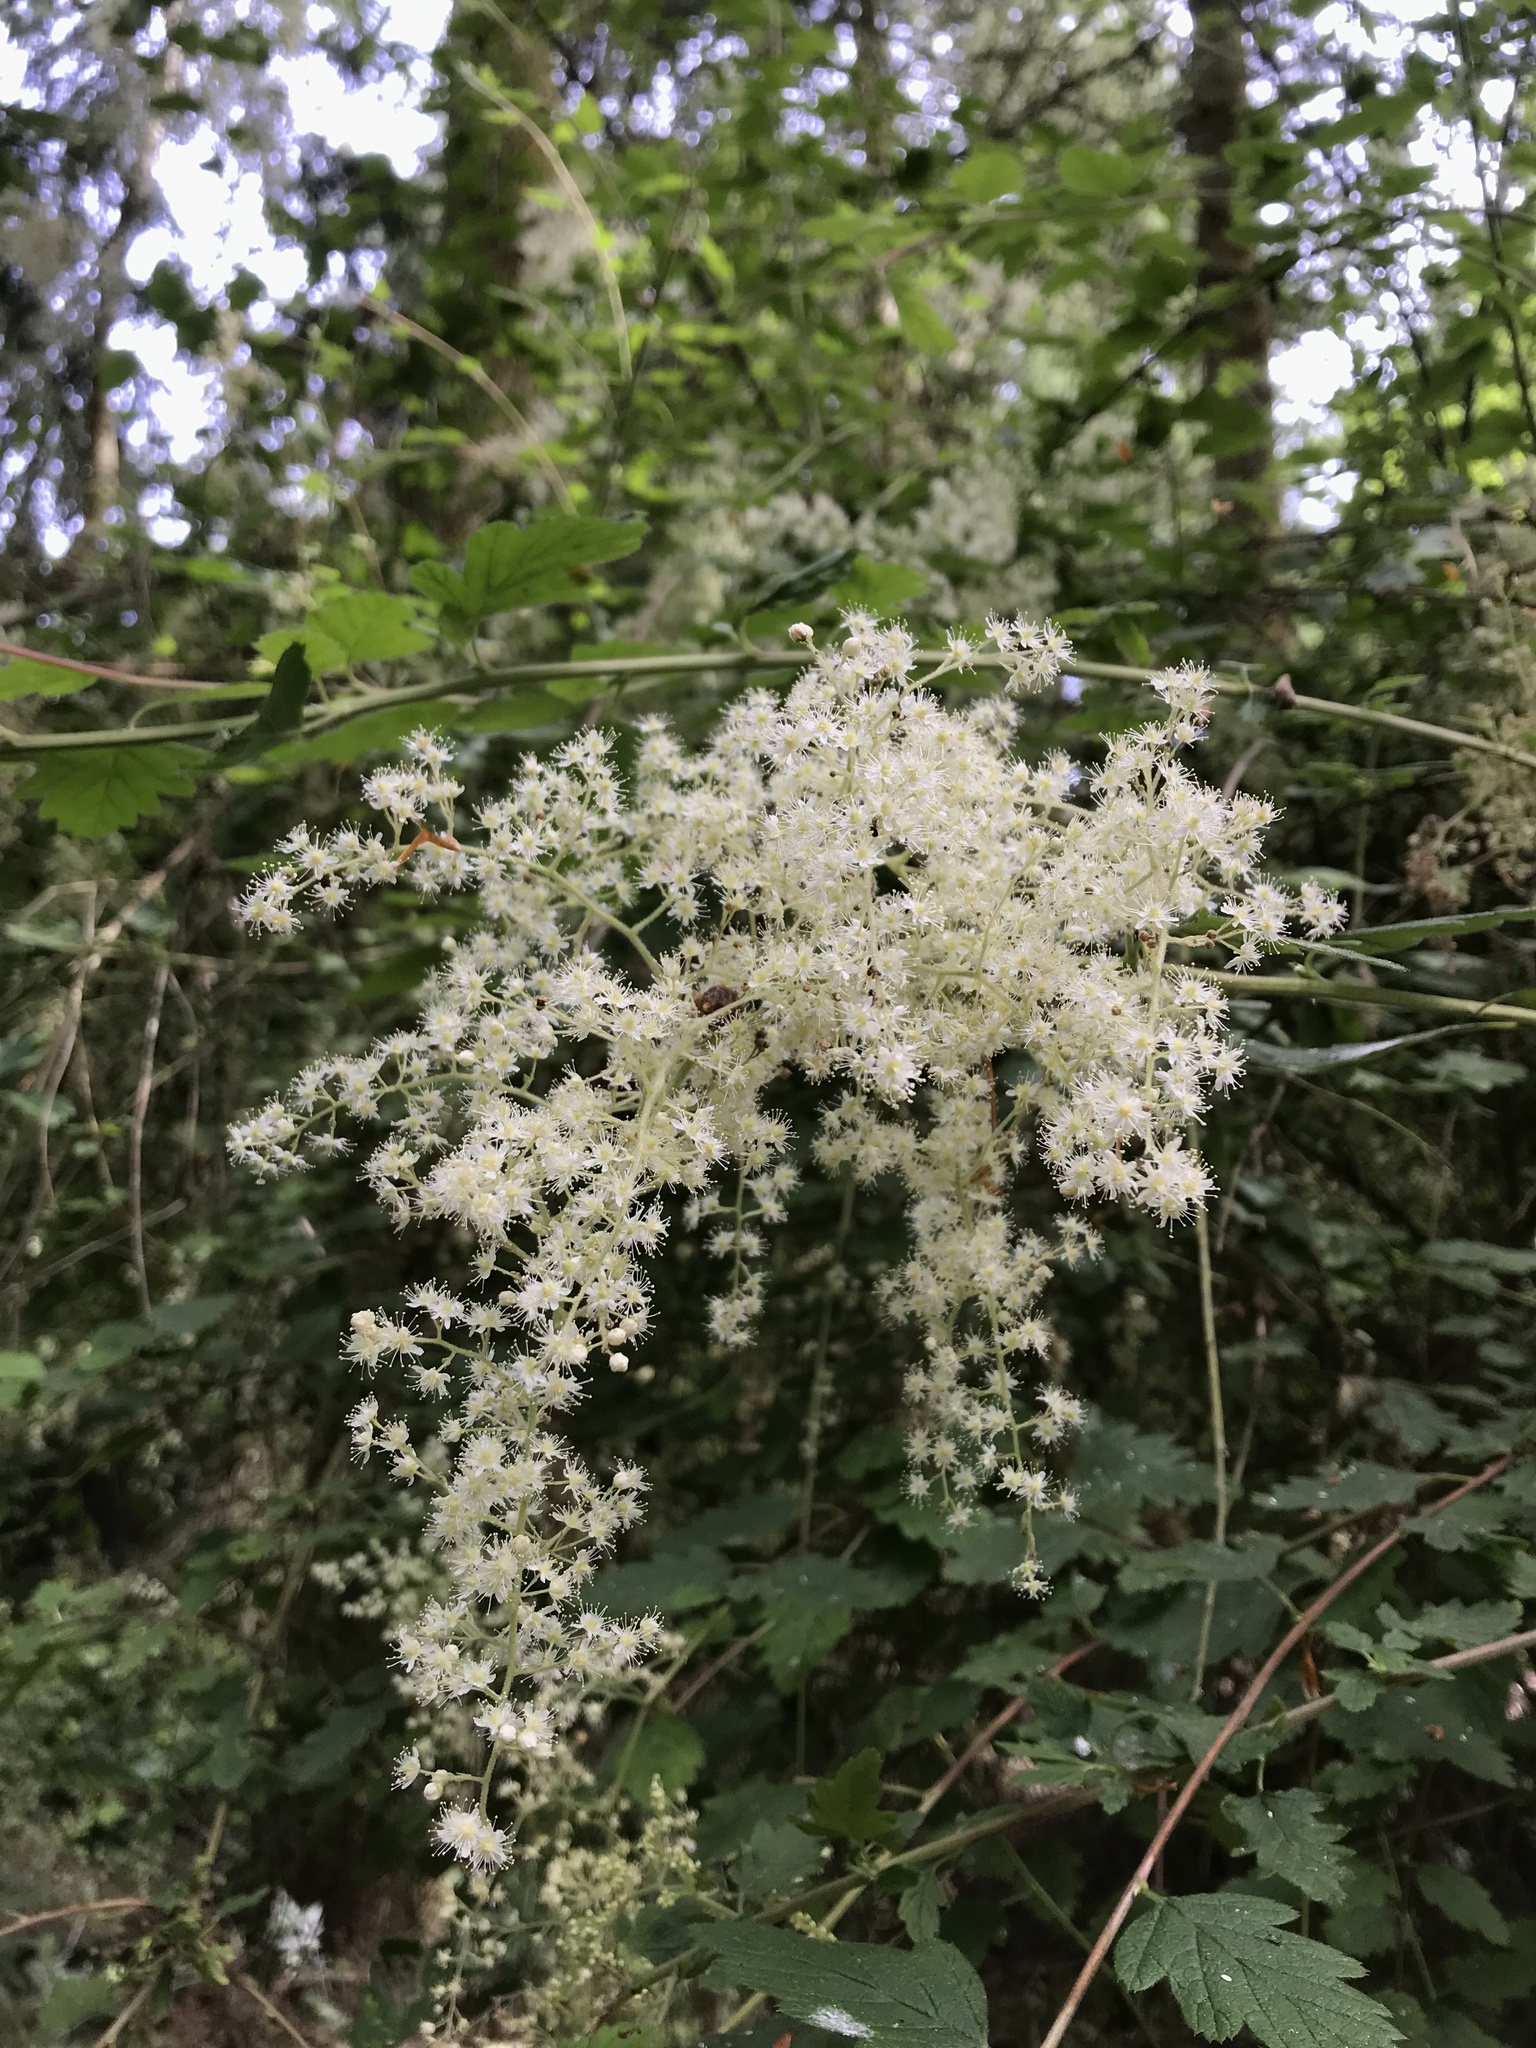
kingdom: Plantae
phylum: Tracheophyta
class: Magnoliopsida
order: Rosales
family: Rosaceae
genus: Holodiscus
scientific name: Holodiscus discolor
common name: Oceanspray
